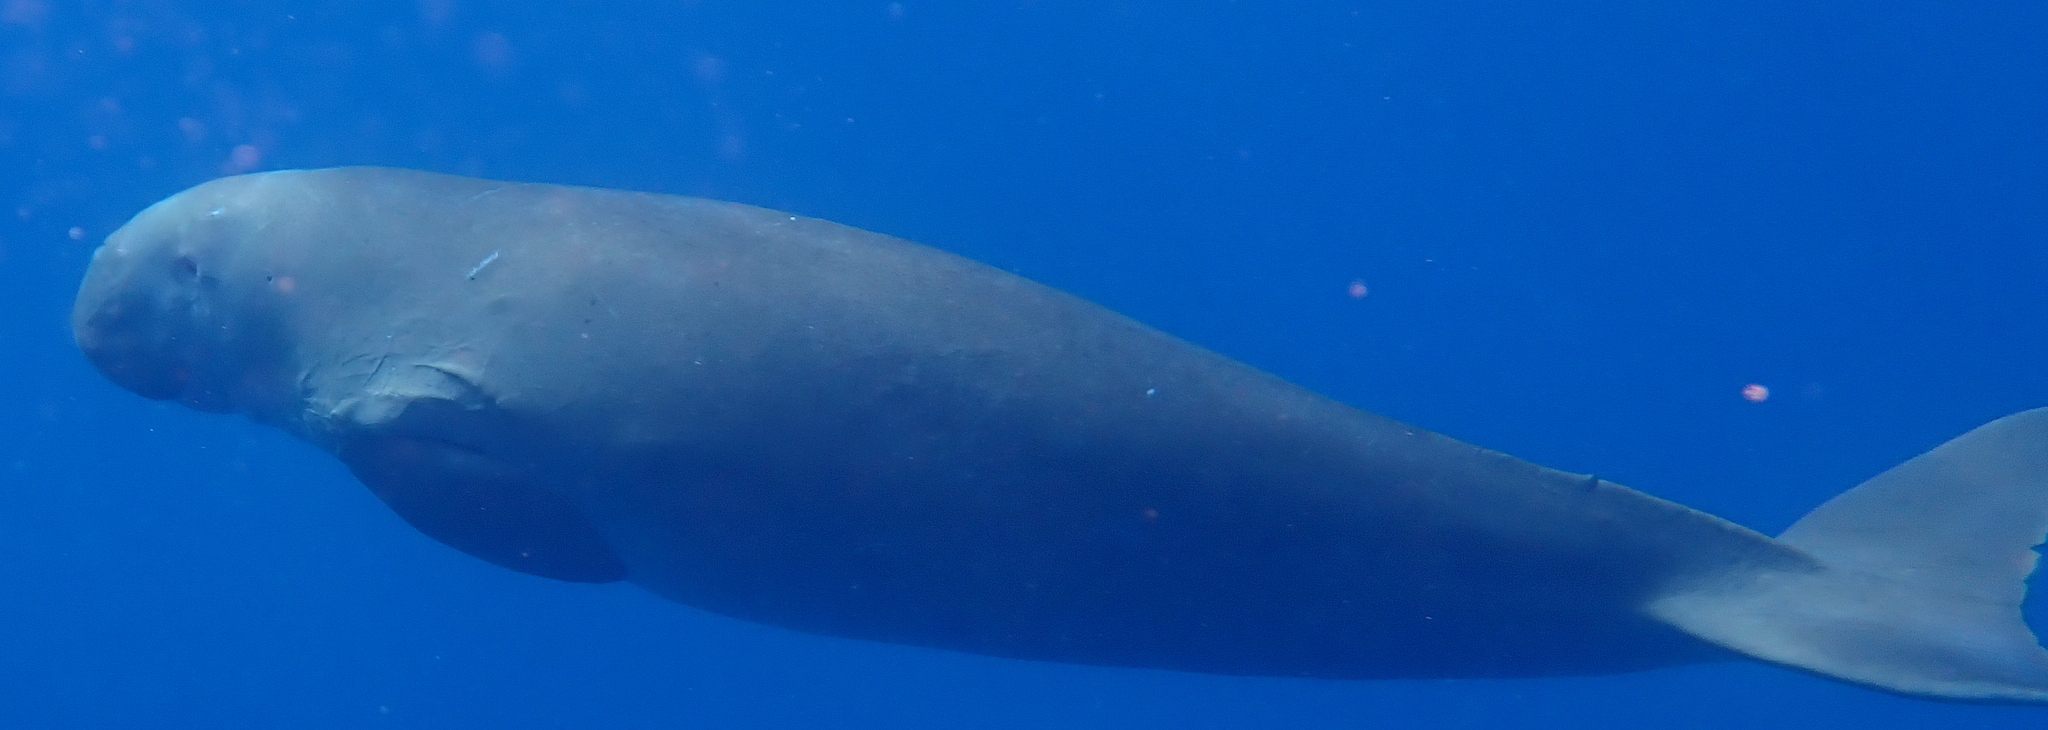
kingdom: Animalia
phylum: Chordata
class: Mammalia
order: Sirenia
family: Dugongidae
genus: Dugong
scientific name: Dugong dugon
